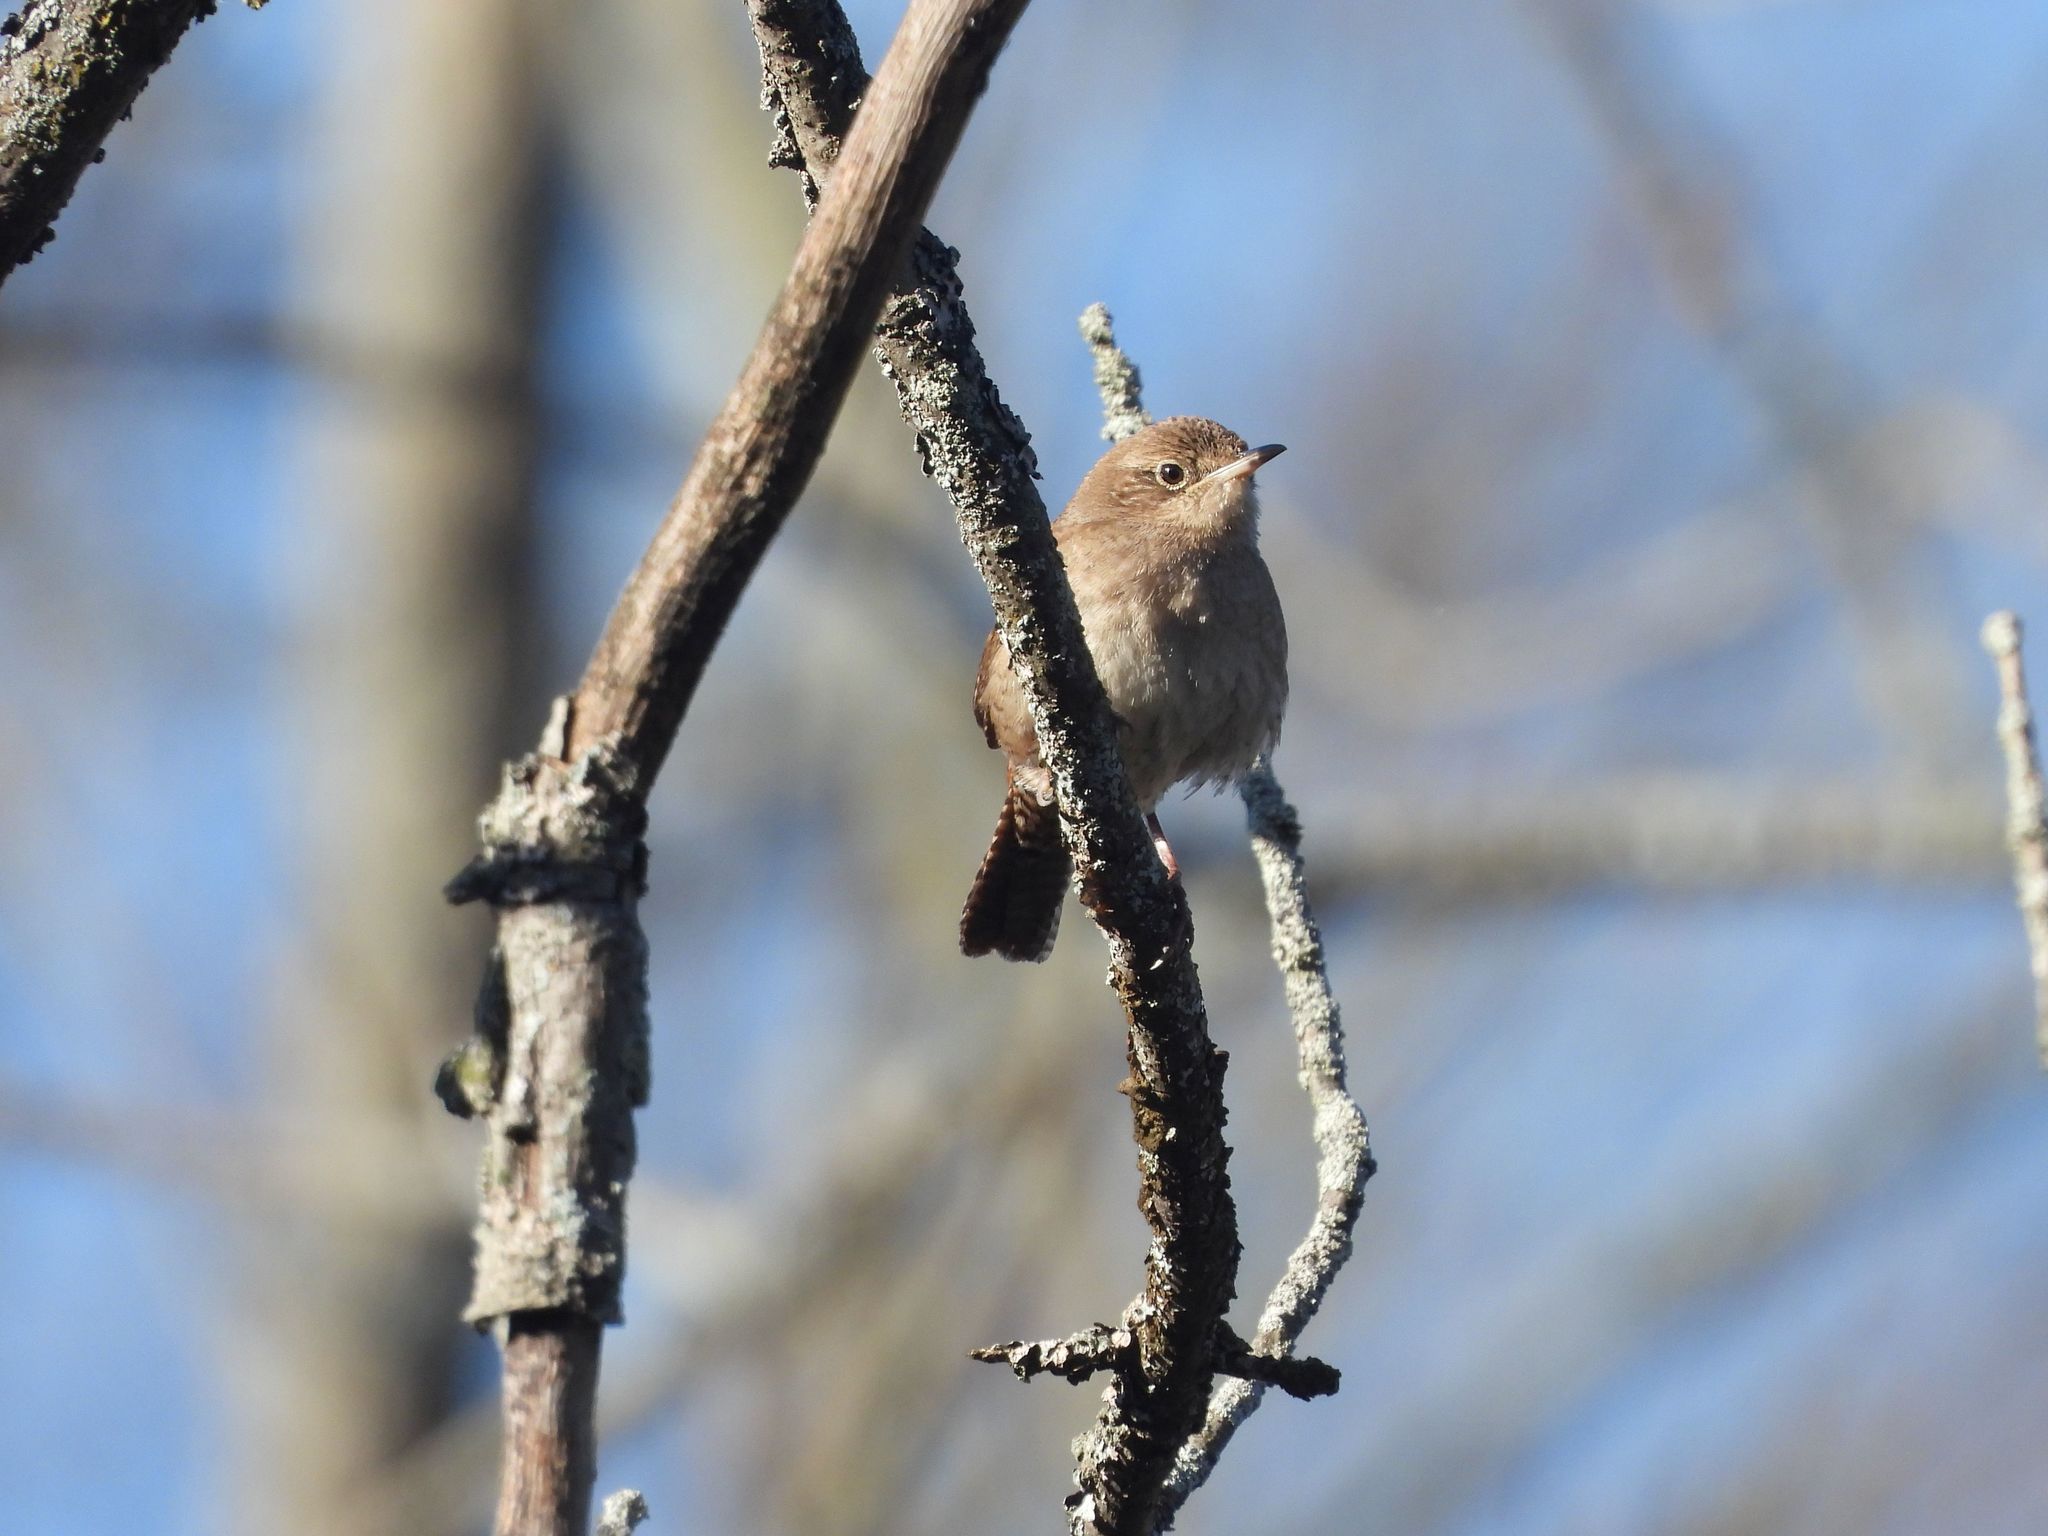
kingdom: Animalia
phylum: Chordata
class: Aves
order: Passeriformes
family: Troglodytidae
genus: Troglodytes
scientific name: Troglodytes aedon
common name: House wren
